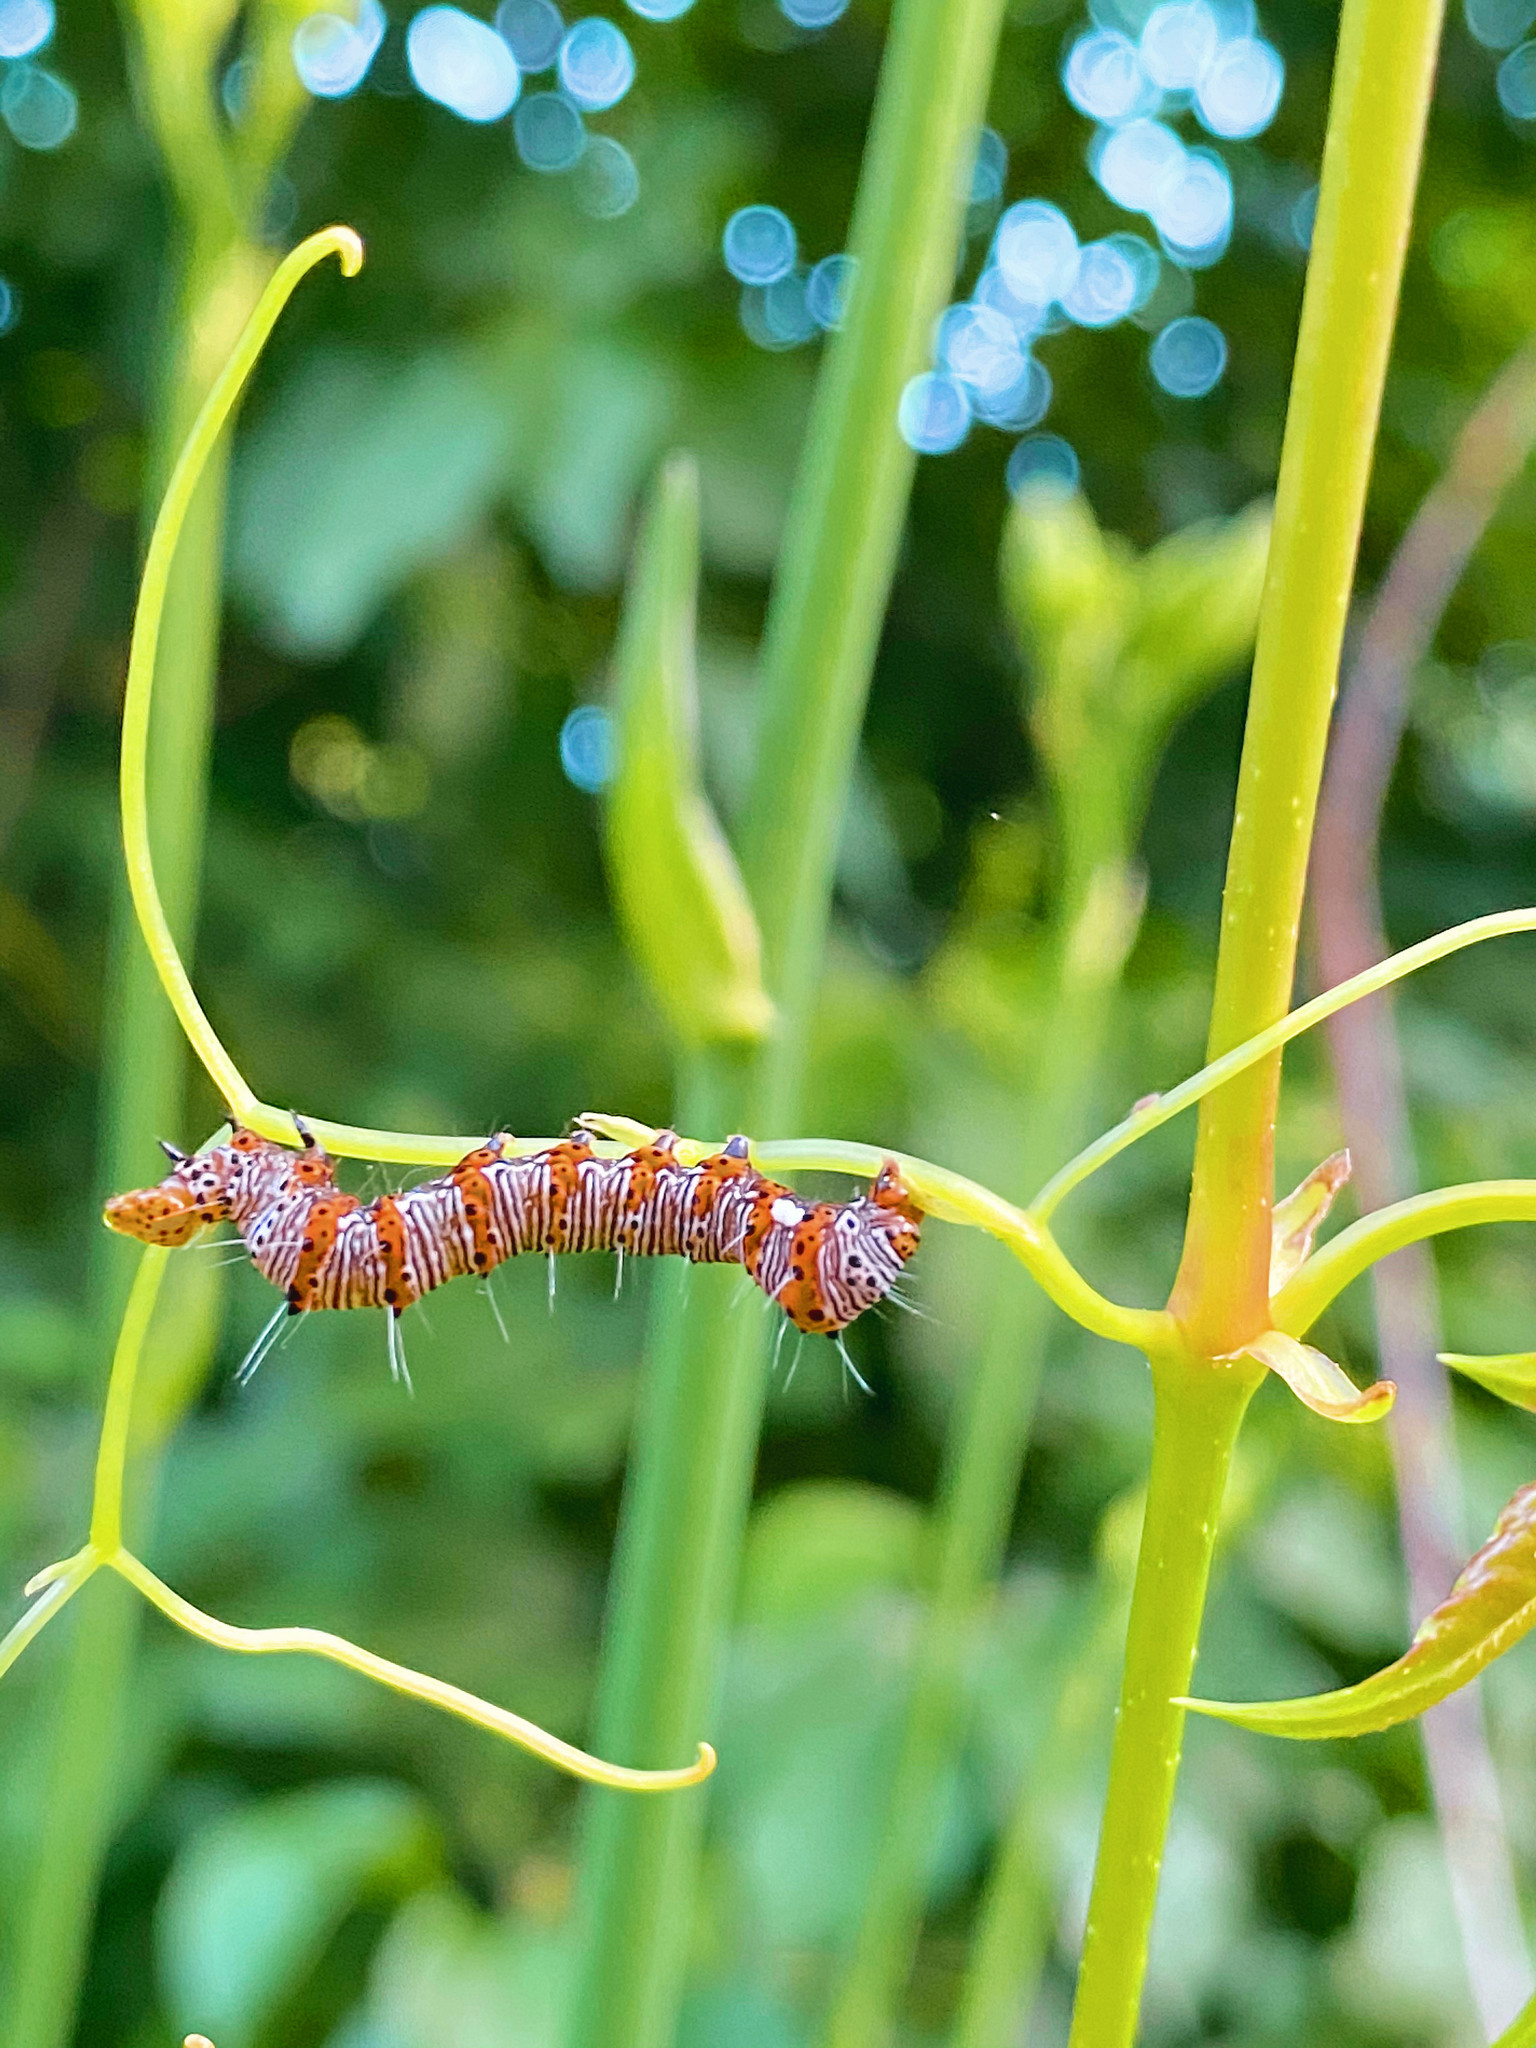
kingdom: Animalia
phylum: Arthropoda
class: Insecta
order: Lepidoptera
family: Noctuidae
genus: Alypia
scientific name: Alypia octomaculata
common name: Eight-spotted forester
